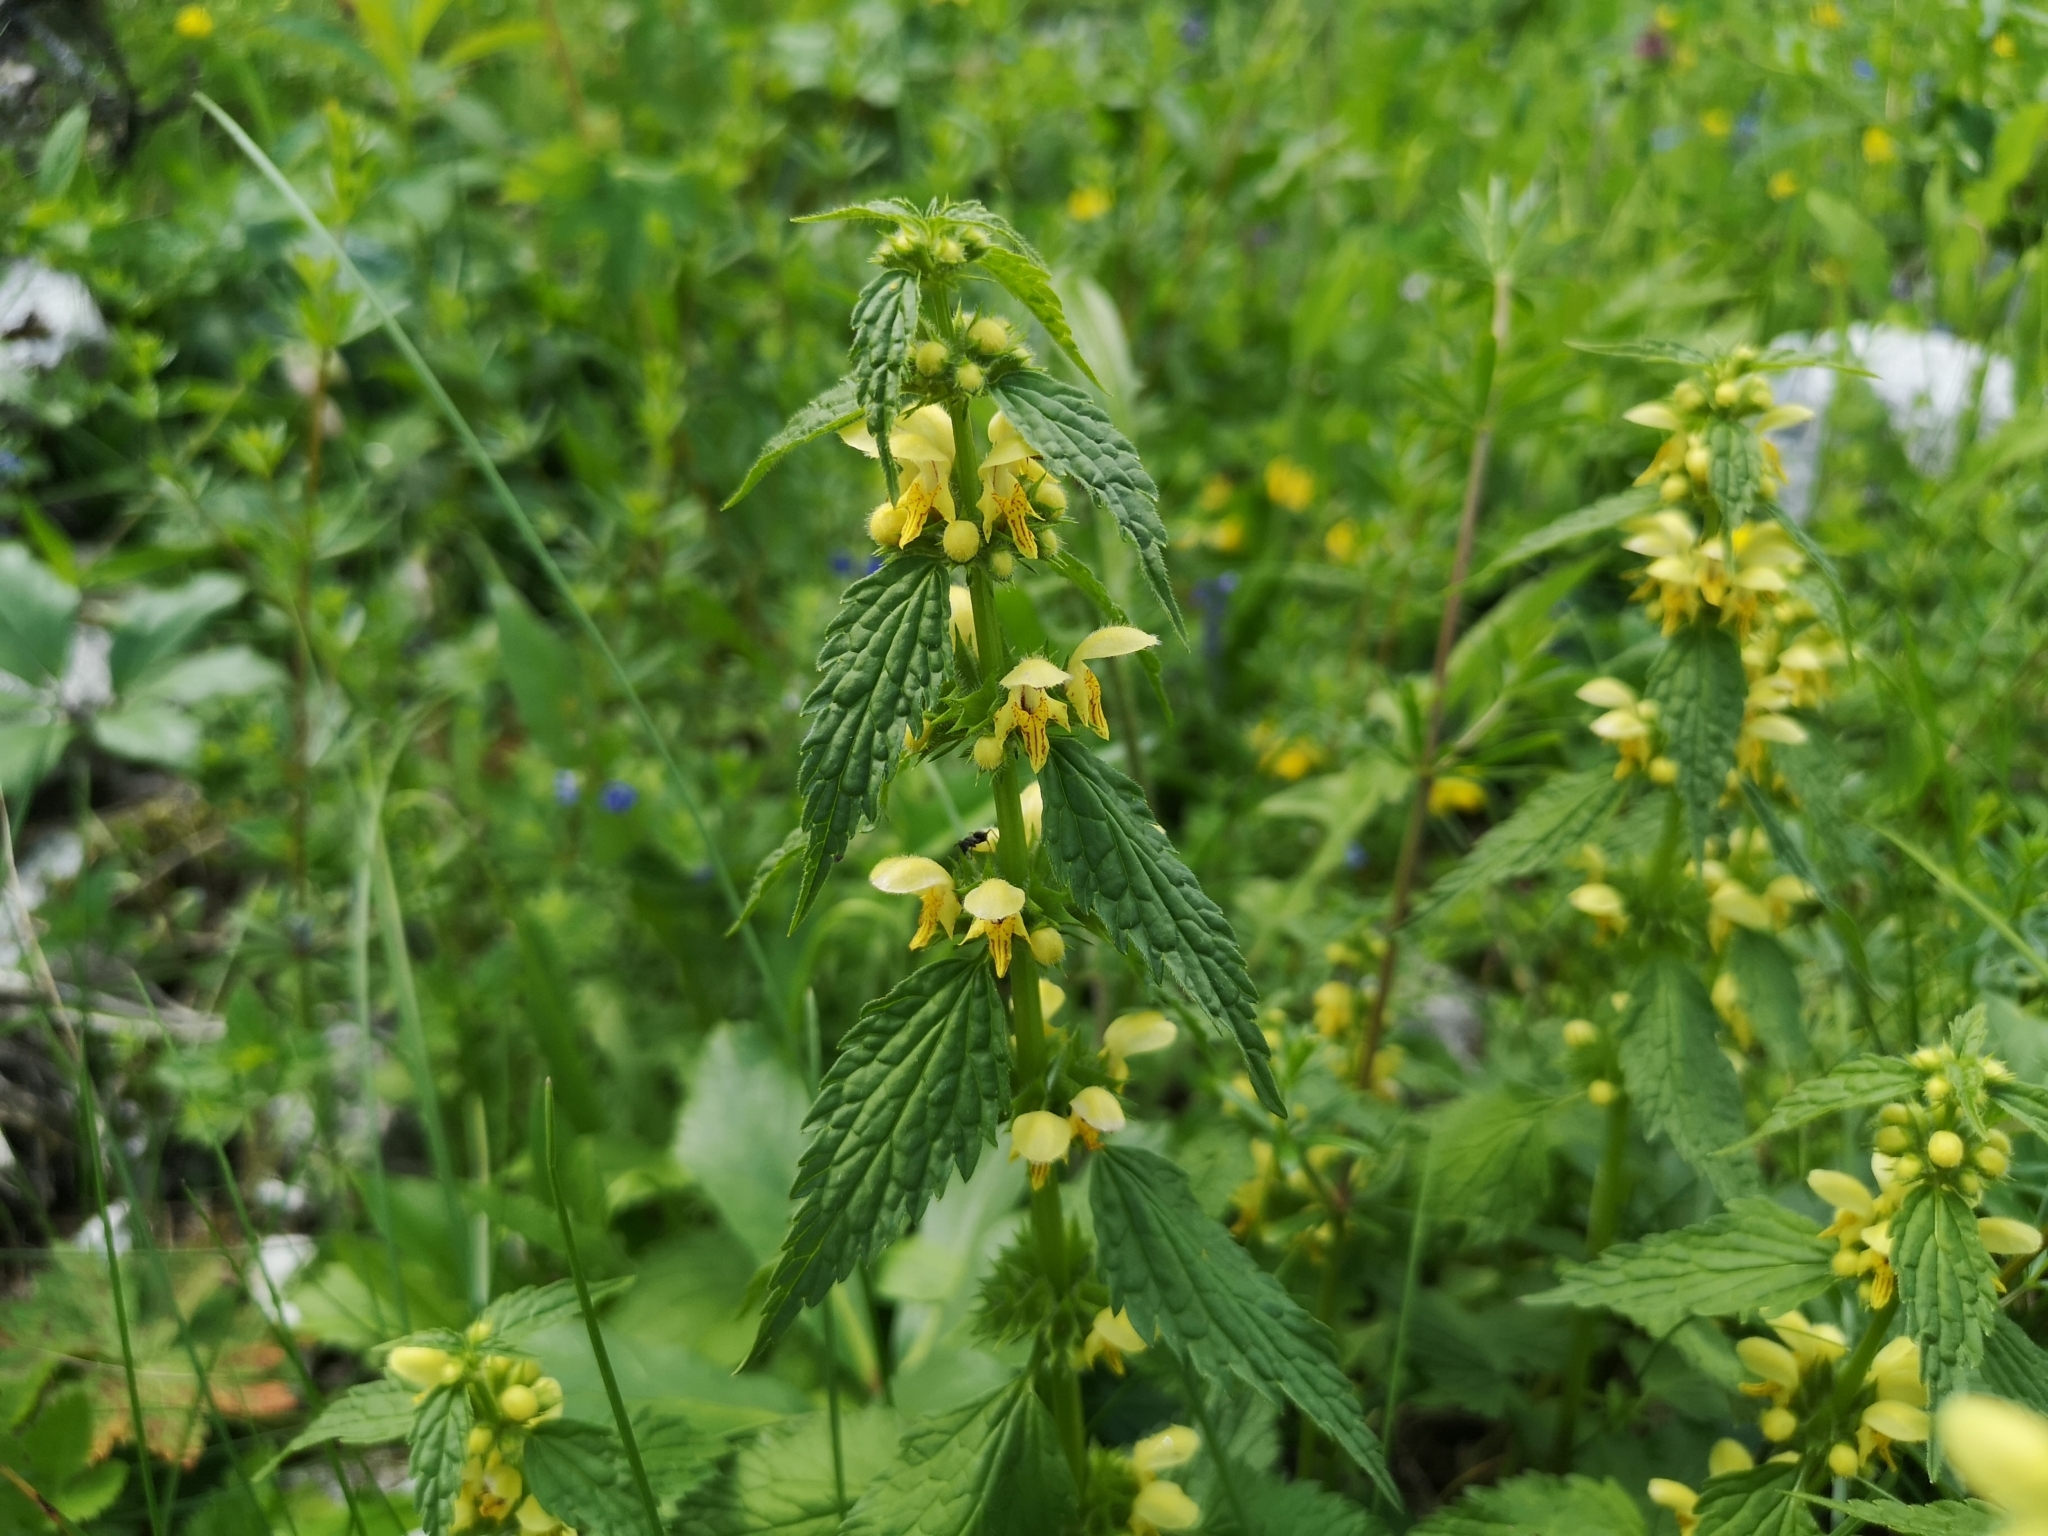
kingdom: Plantae
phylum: Tracheophyta
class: Magnoliopsida
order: Lamiales
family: Lamiaceae
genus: Lamium
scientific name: Lamium galeobdolon
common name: Yellow archangel
